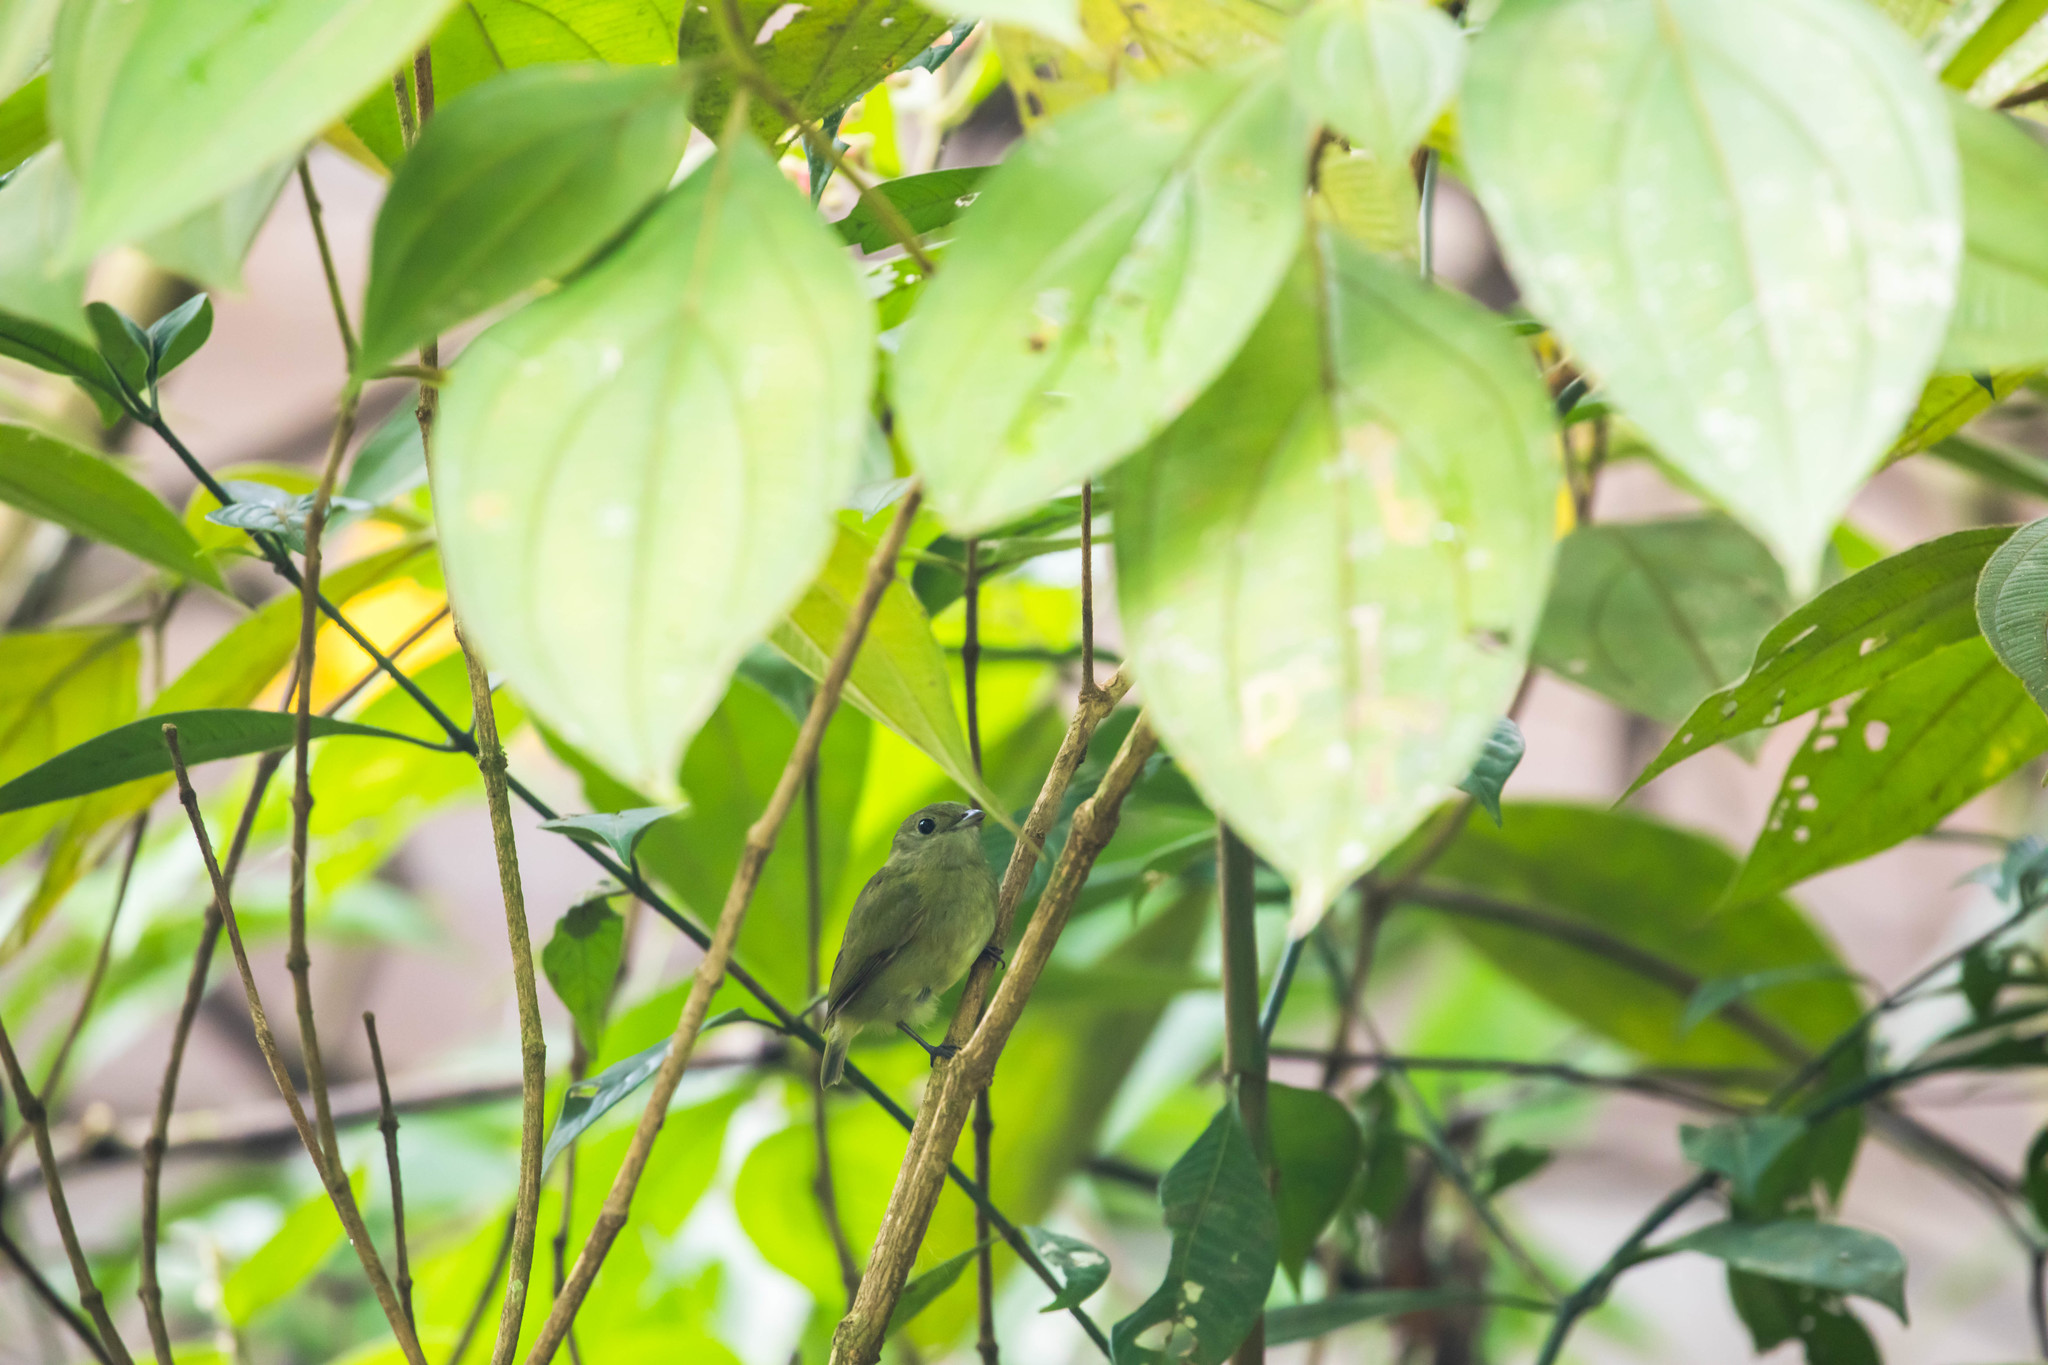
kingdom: Animalia
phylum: Chordata
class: Aves
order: Passeriformes
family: Pipridae
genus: Corapipo
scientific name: Corapipo altera
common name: White-ruffed manakin
